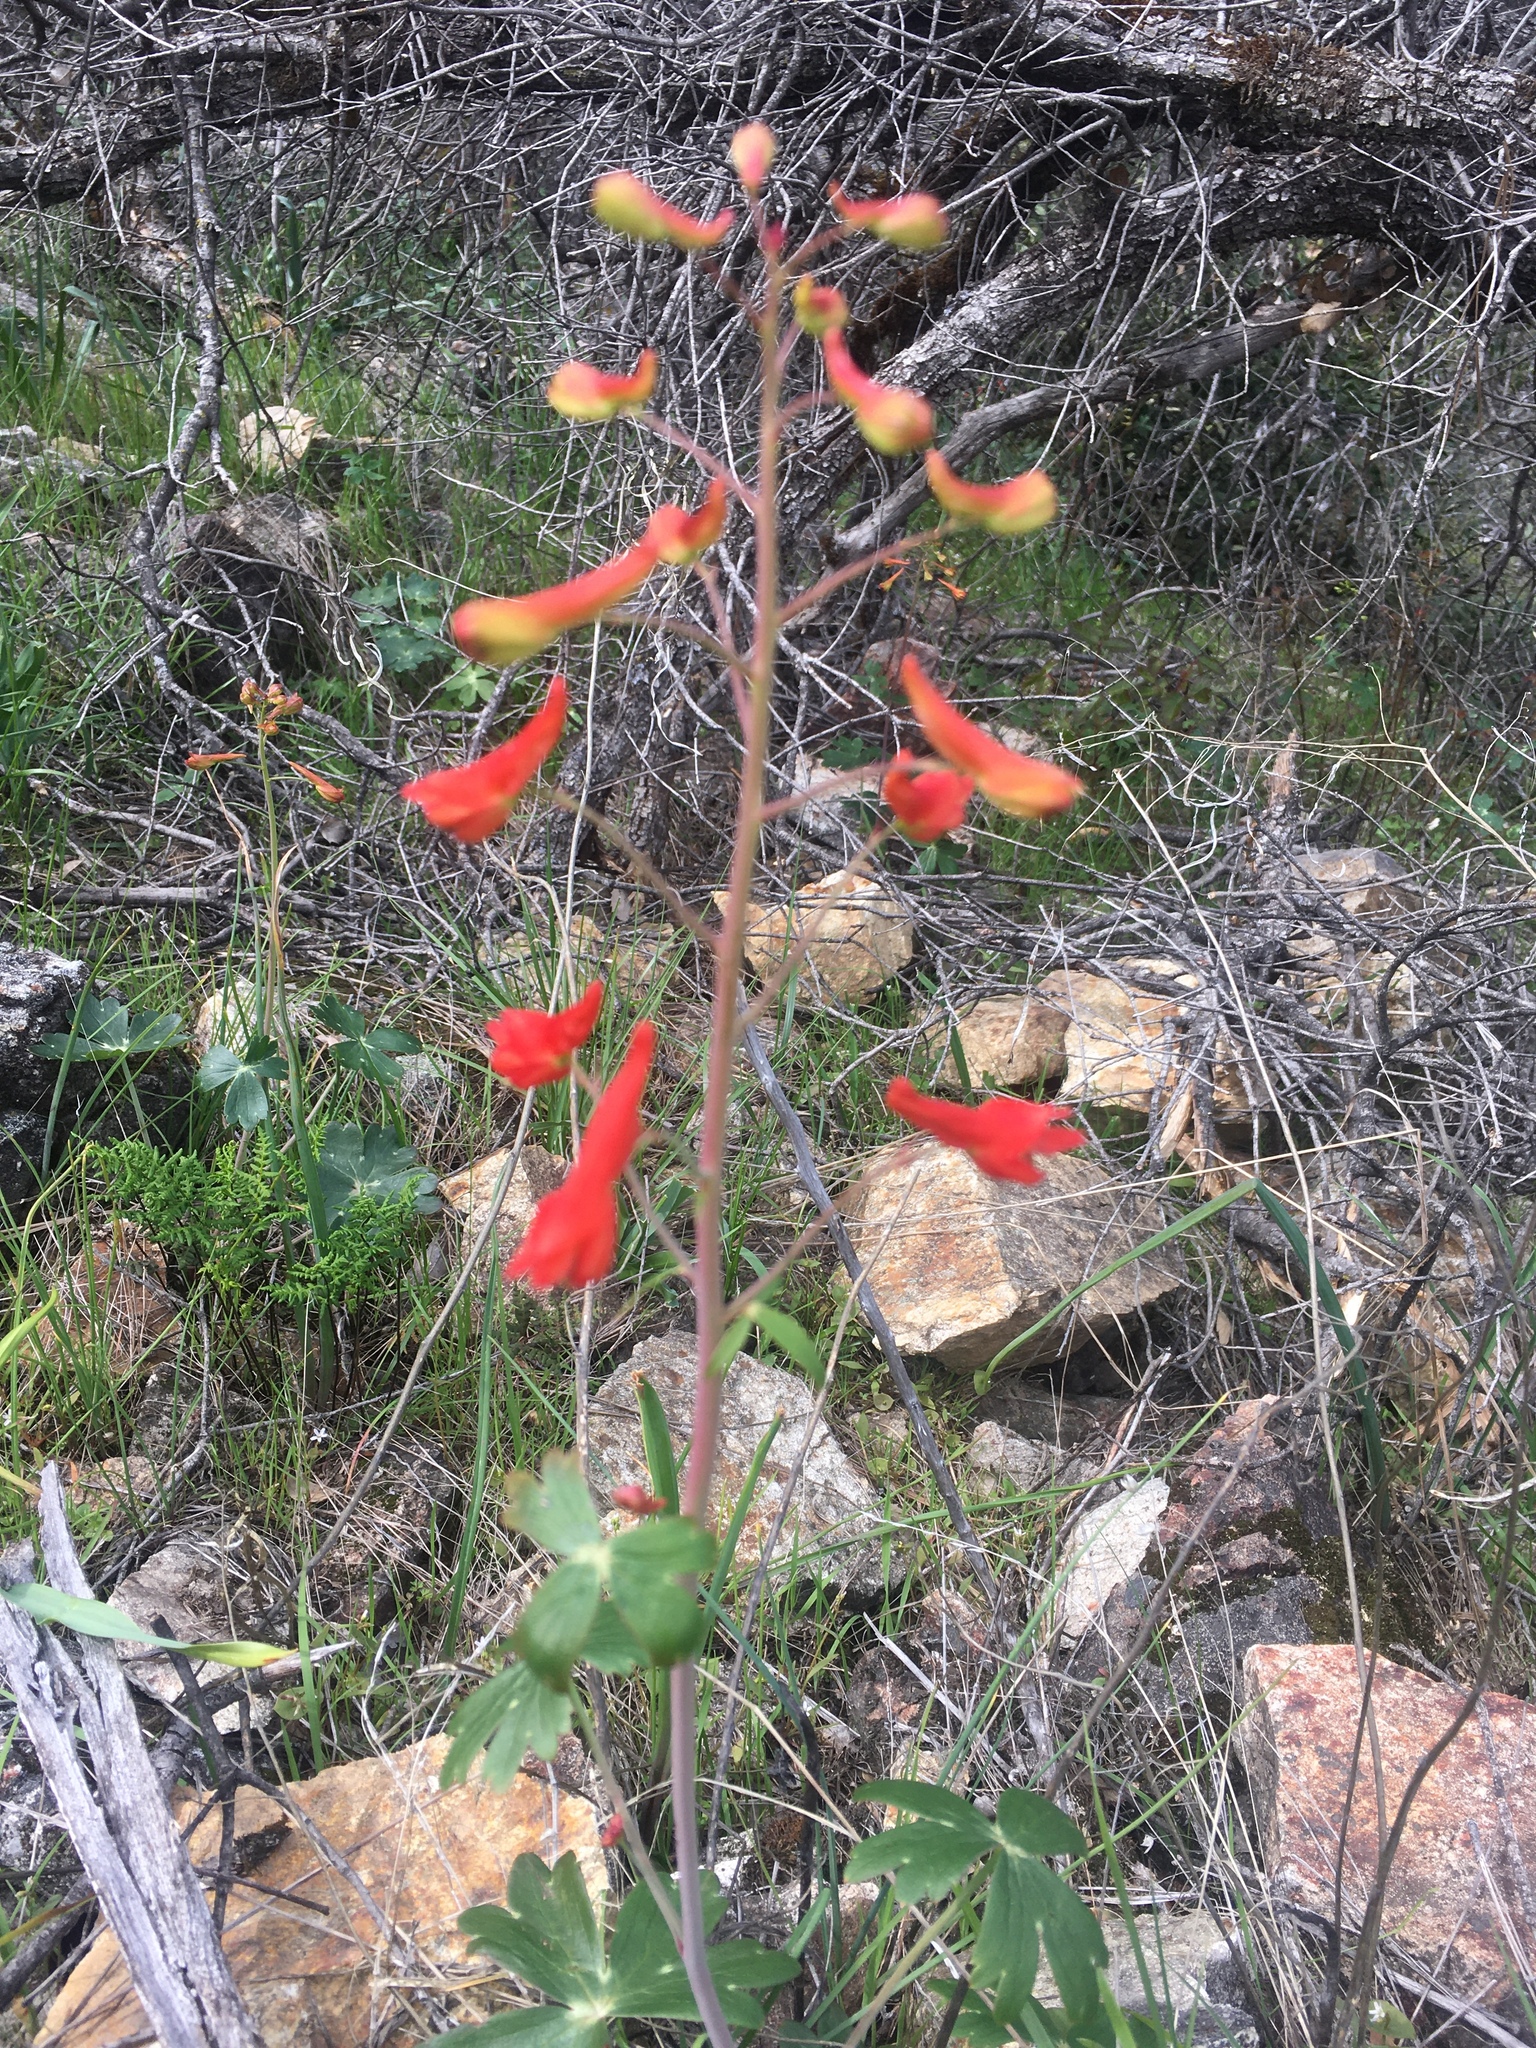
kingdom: Plantae
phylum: Tracheophyta
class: Magnoliopsida
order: Ranunculales
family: Ranunculaceae
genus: Delphinium
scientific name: Delphinium nudicaule
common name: Red larkspur
